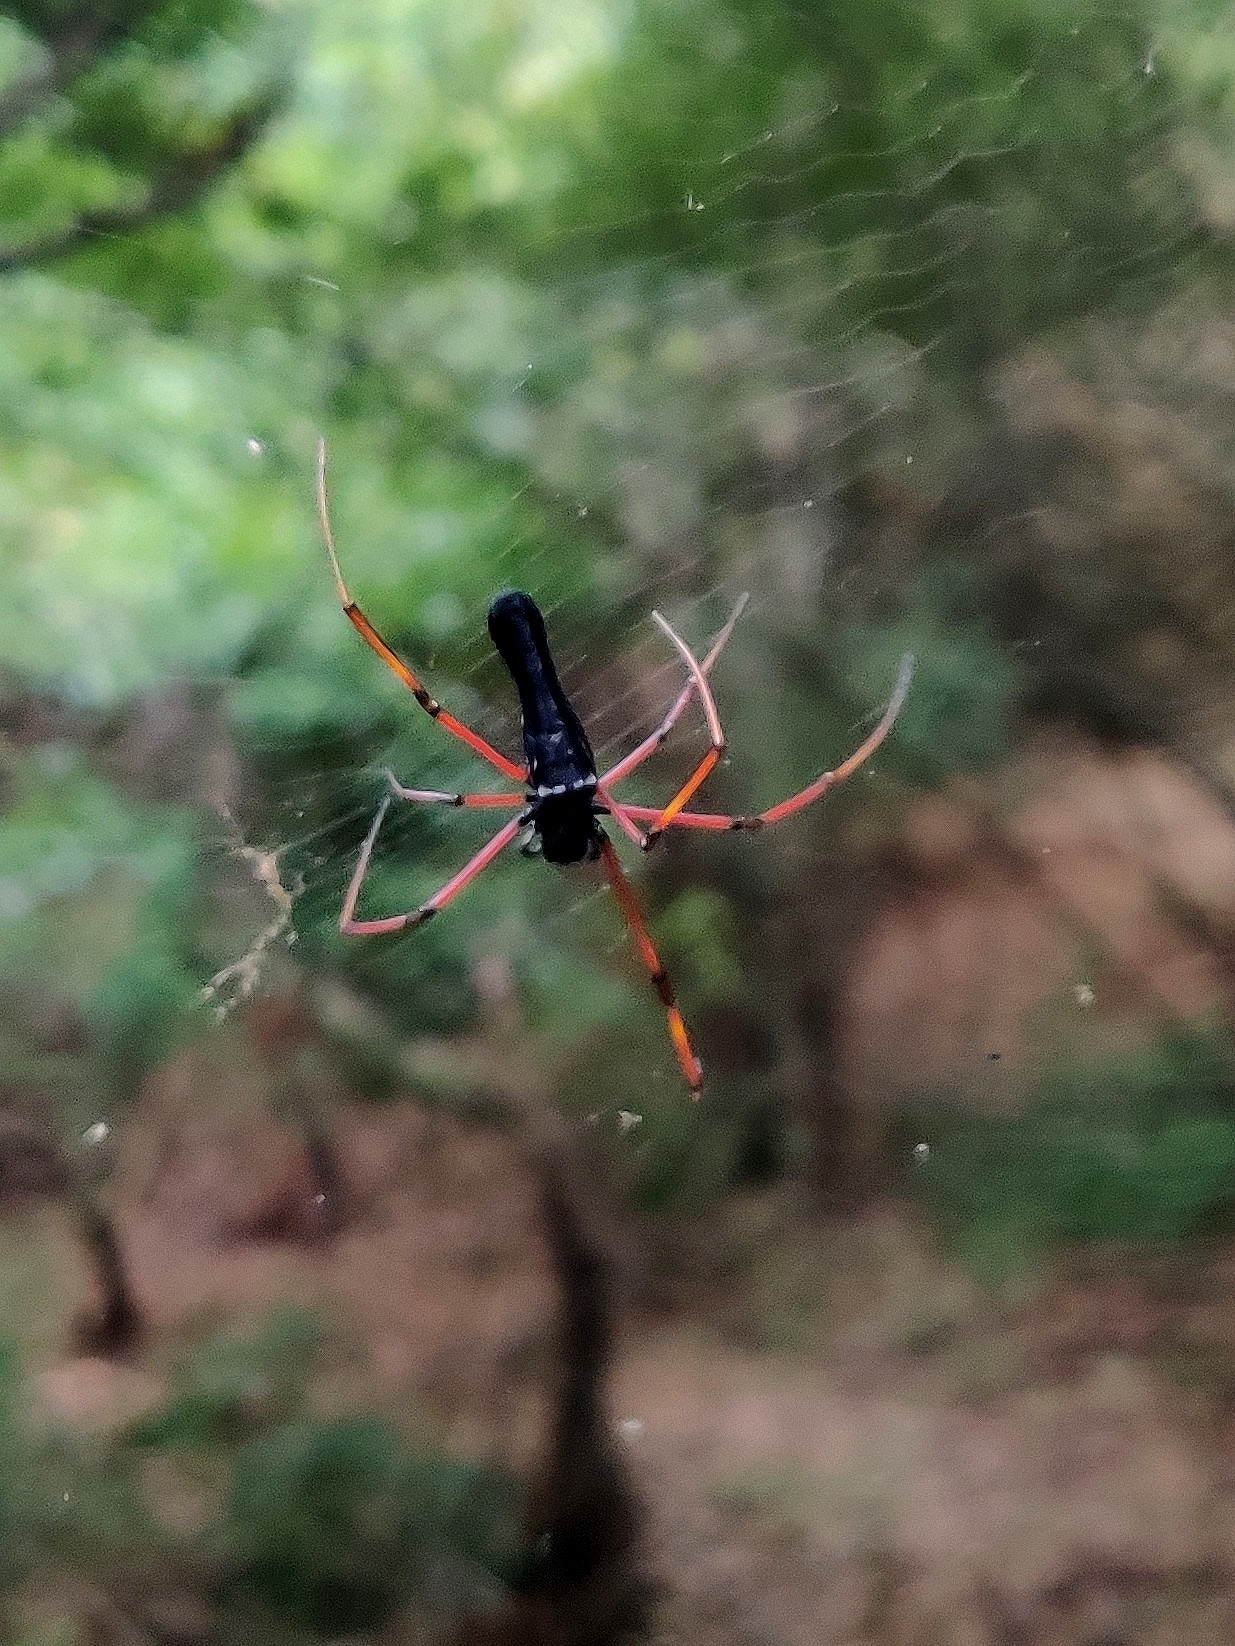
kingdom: Animalia
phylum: Arthropoda
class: Arachnida
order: Araneae
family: Araneidae
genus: Nephila
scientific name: Nephila kuhli
